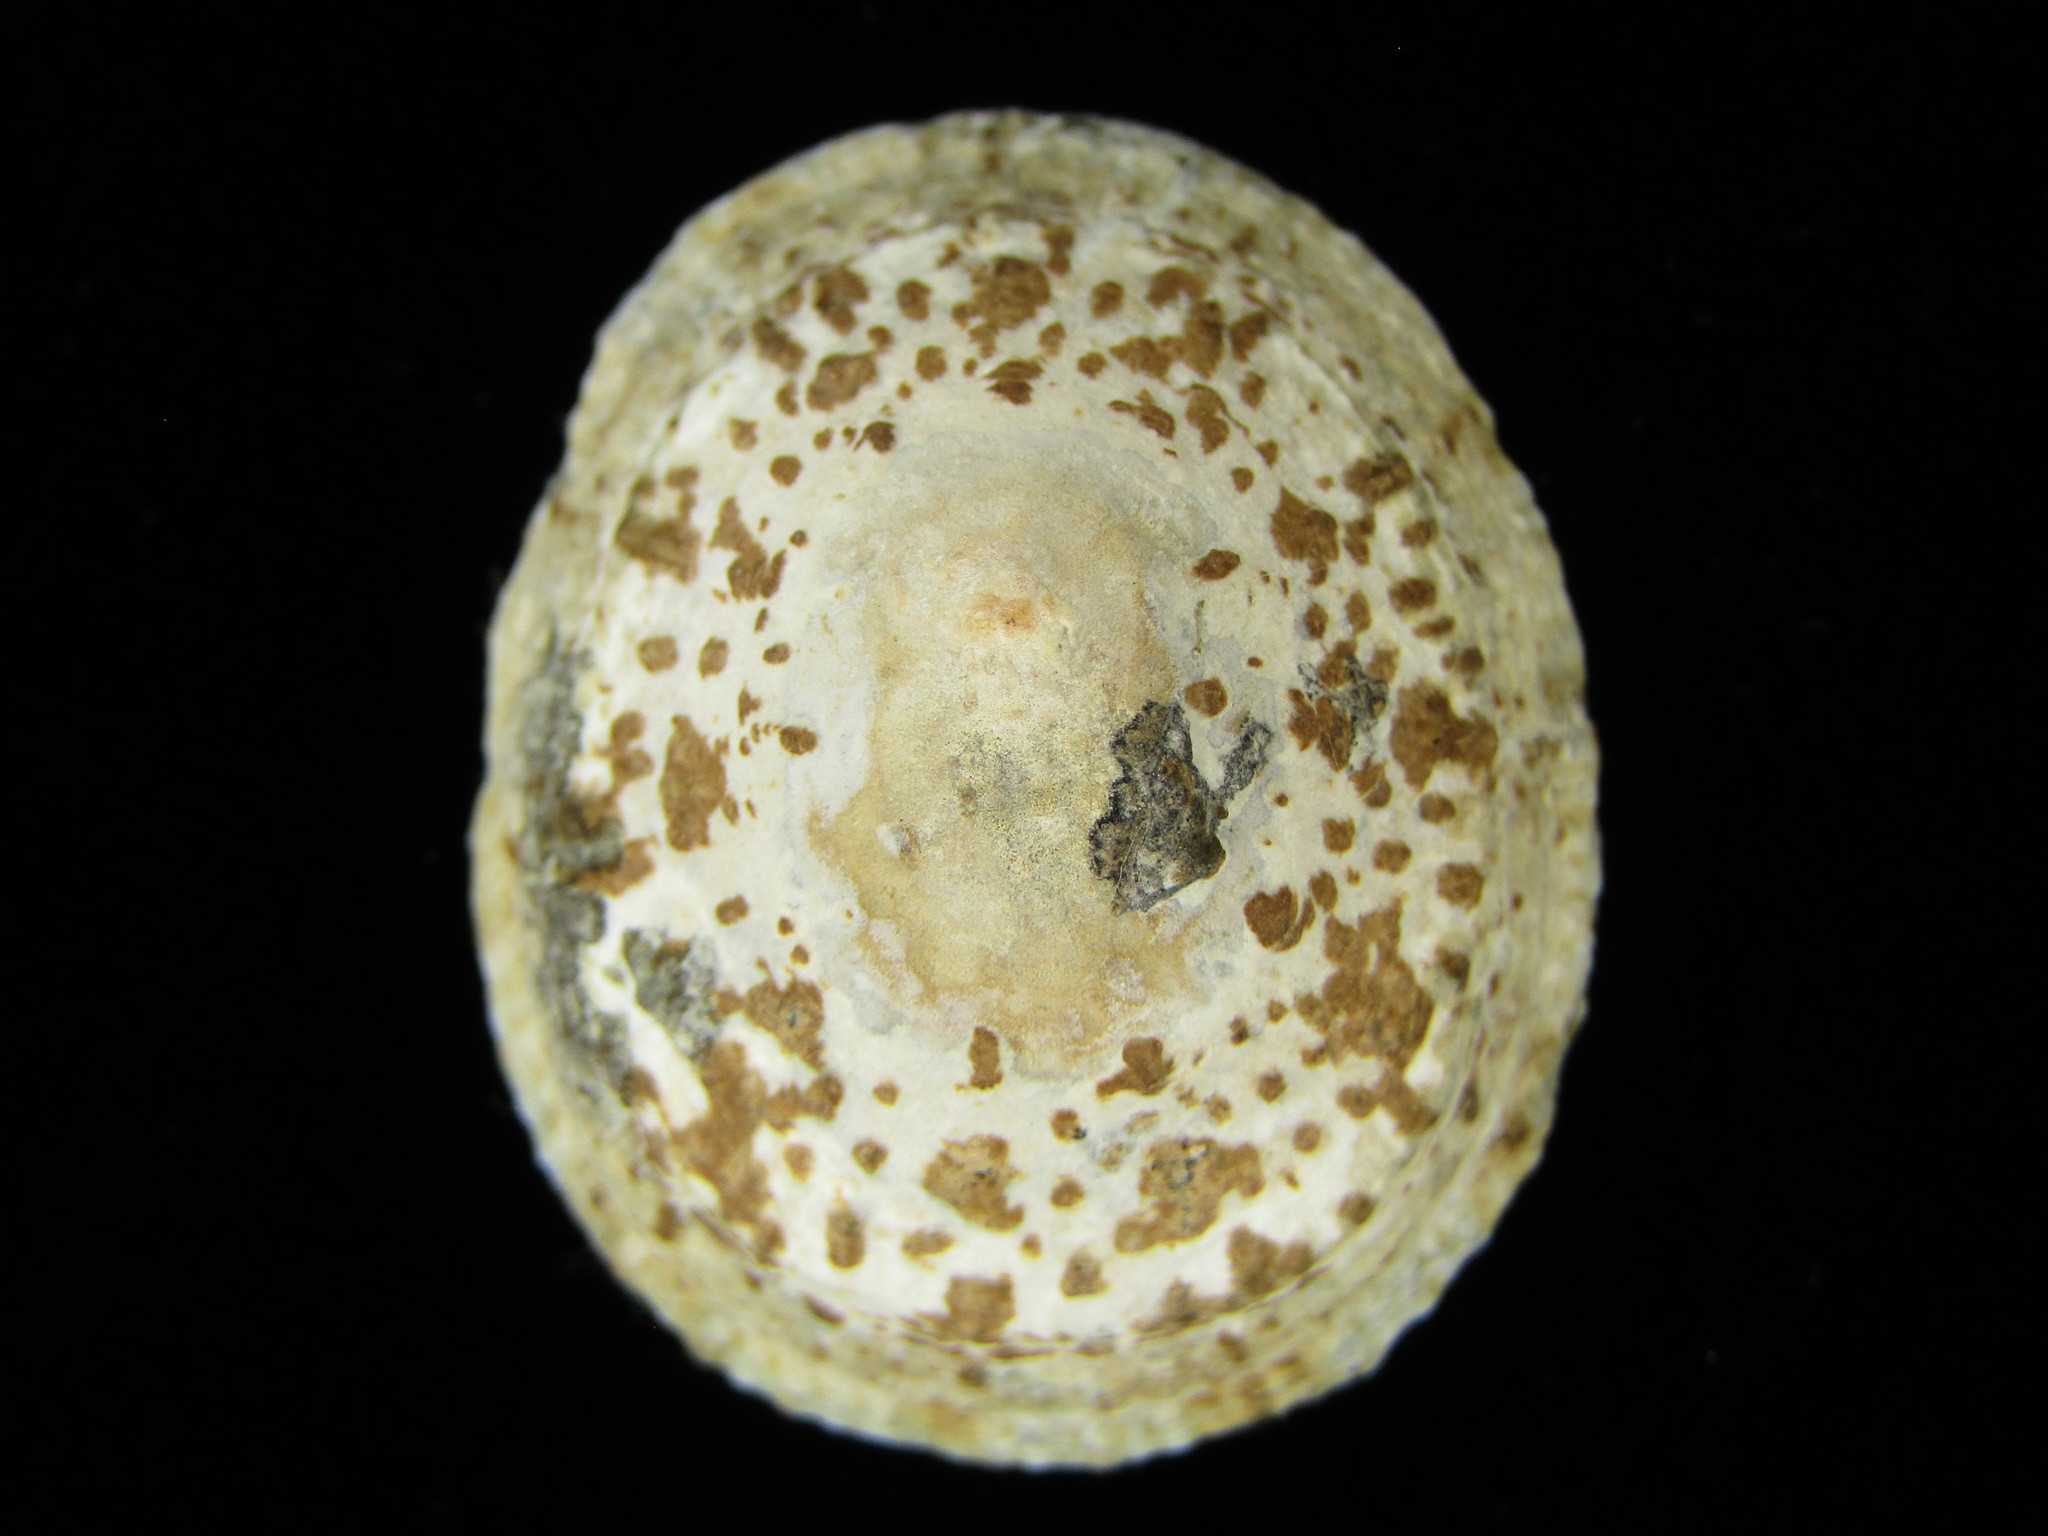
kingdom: Animalia
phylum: Mollusca
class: Gastropoda
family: Nacellidae
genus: Cellana
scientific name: Cellana grata
